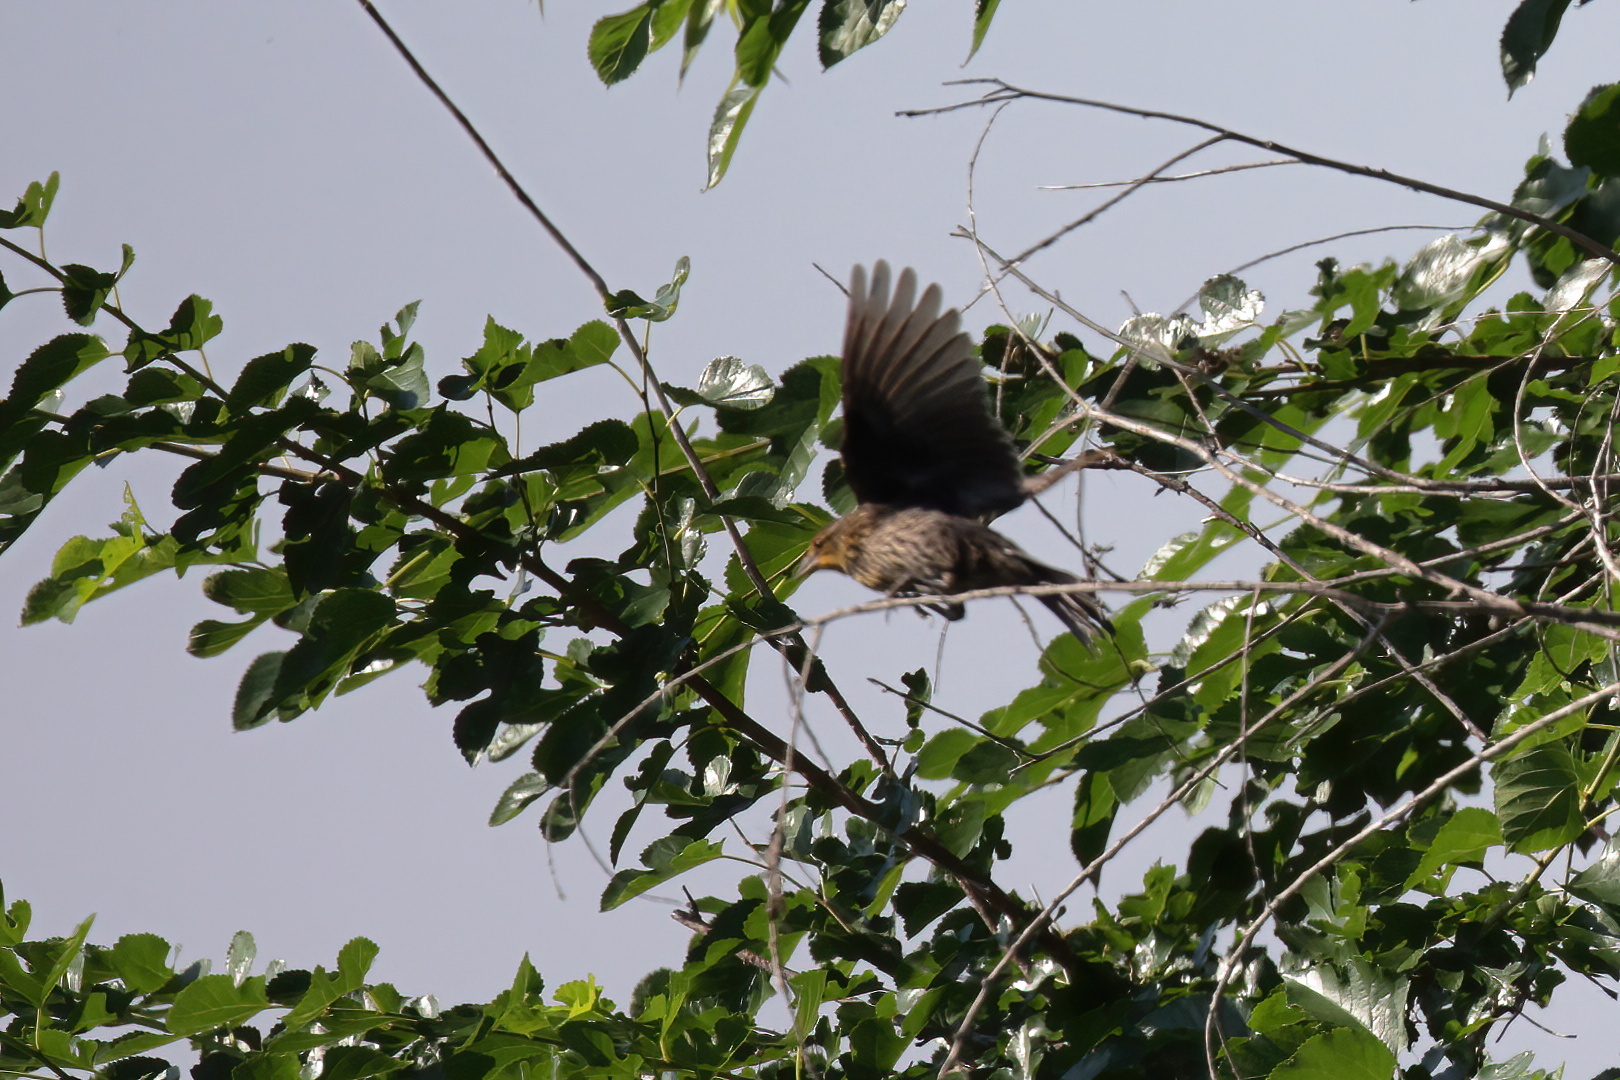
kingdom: Animalia
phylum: Chordata
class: Aves
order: Passeriformes
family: Icteridae
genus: Agelaius
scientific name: Agelaius phoeniceus
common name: Red-winged blackbird
